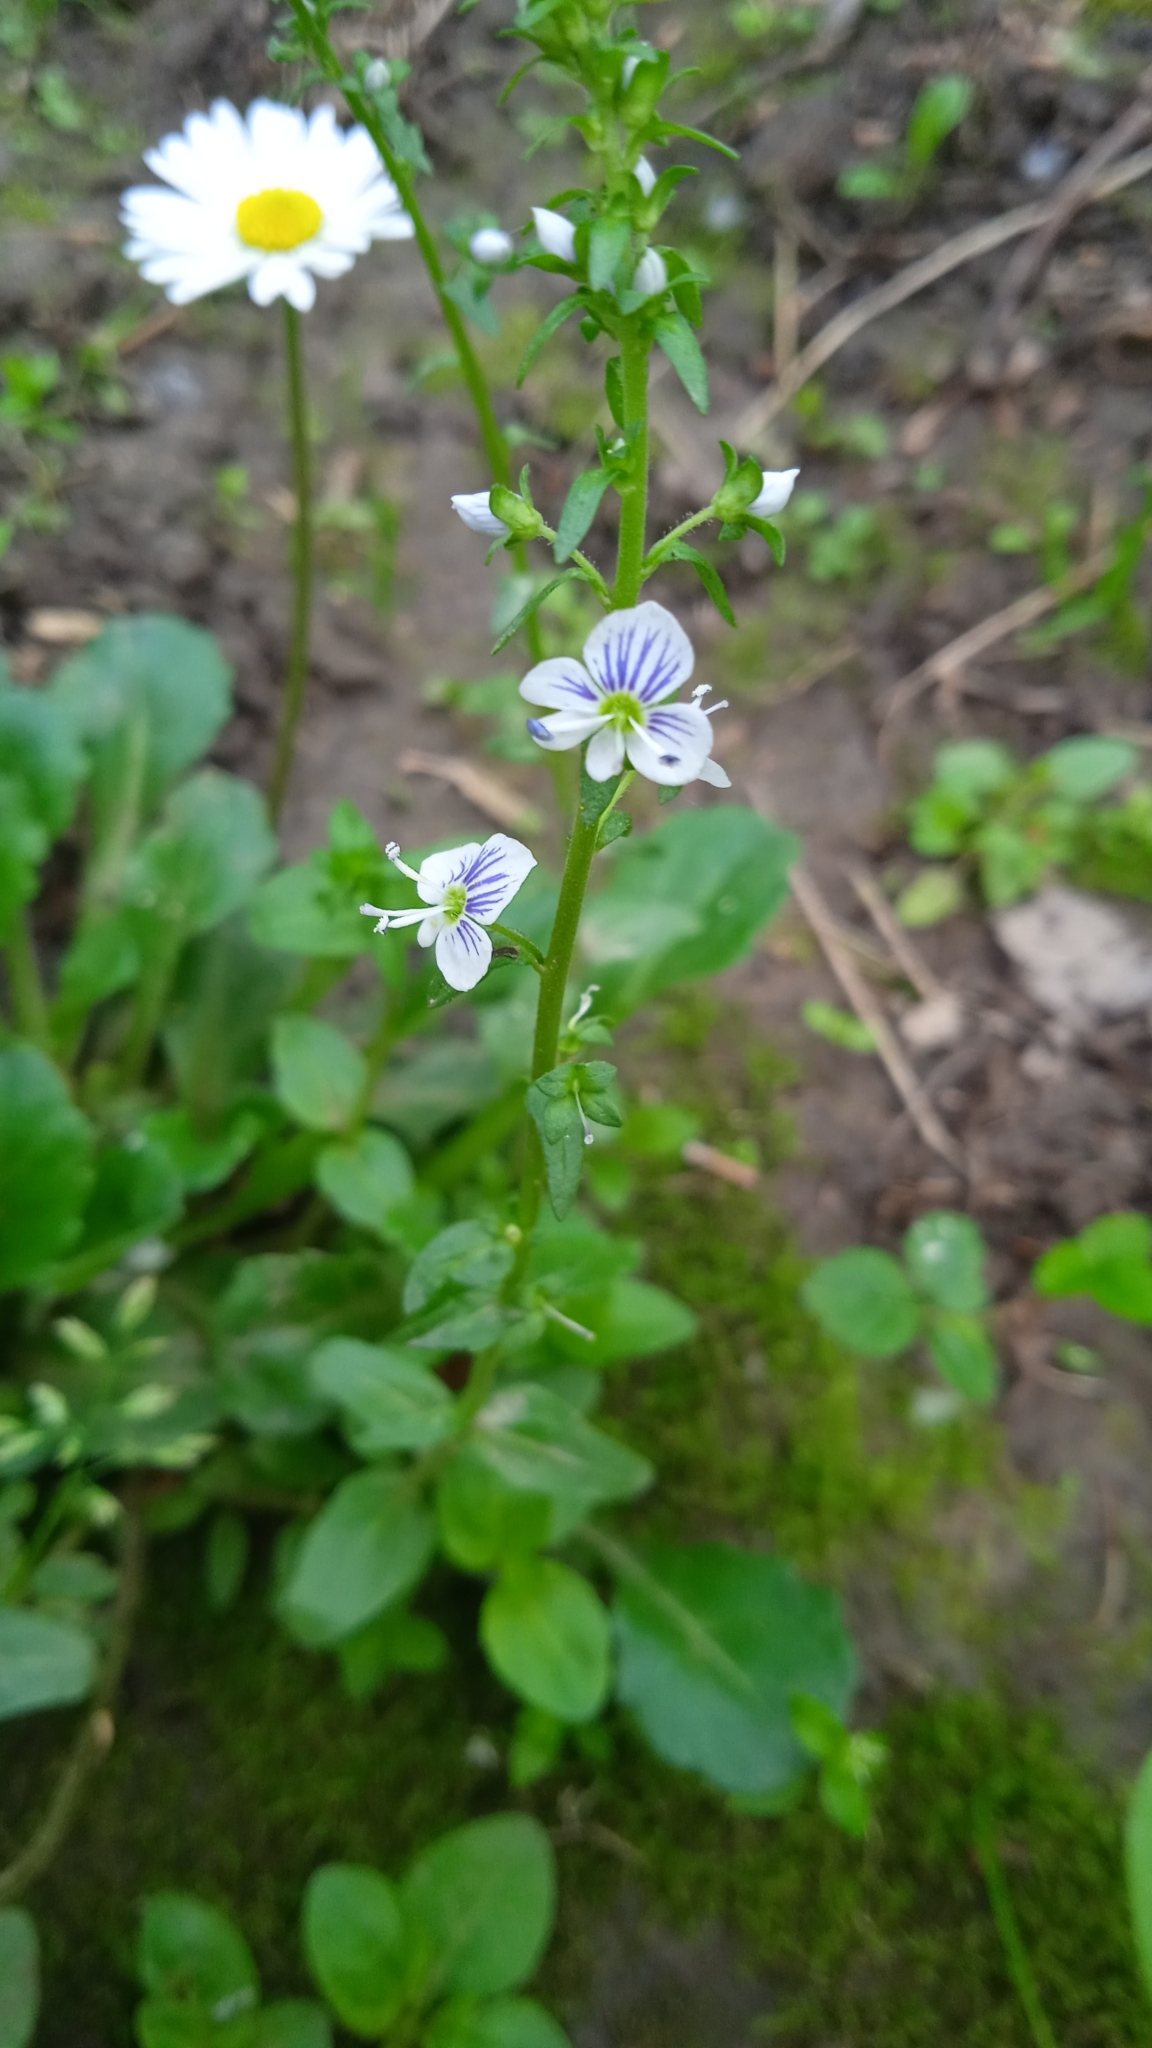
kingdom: Plantae
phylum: Tracheophyta
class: Magnoliopsida
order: Lamiales
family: Plantaginaceae
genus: Veronica
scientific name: Veronica serpyllifolia
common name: Thyme-leaved speedwell
